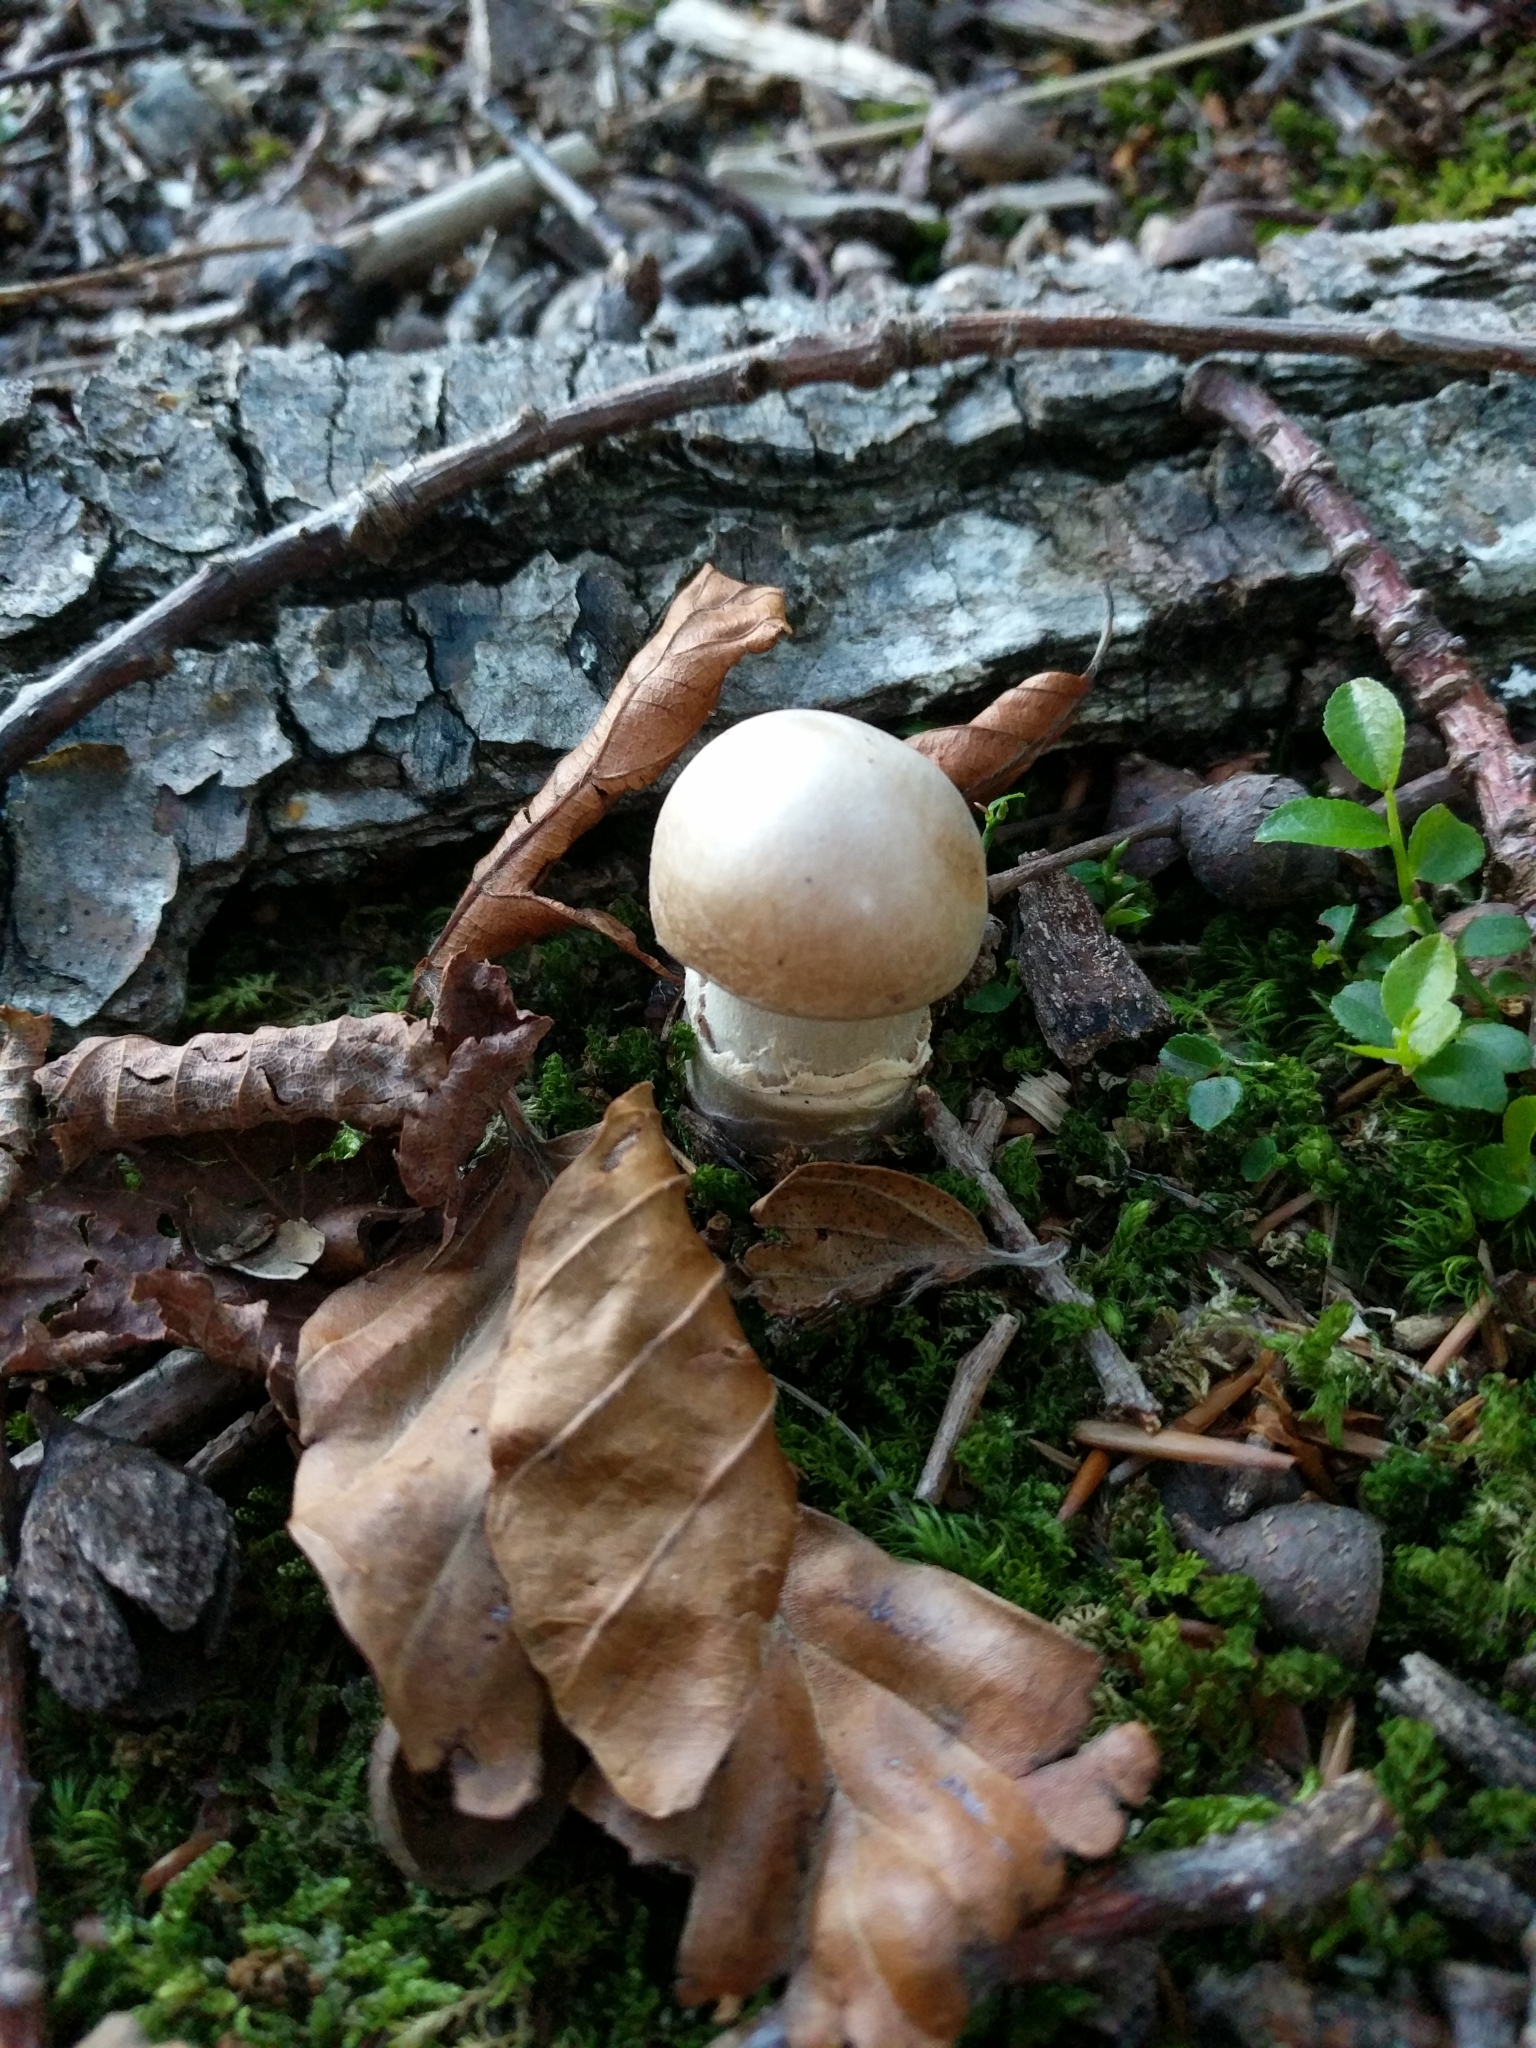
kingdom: Fungi
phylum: Basidiomycota
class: Agaricomycetes
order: Agaricales
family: Cortinariaceae
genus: Cortinarius
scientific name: Cortinarius caperatus
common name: The gypsy
